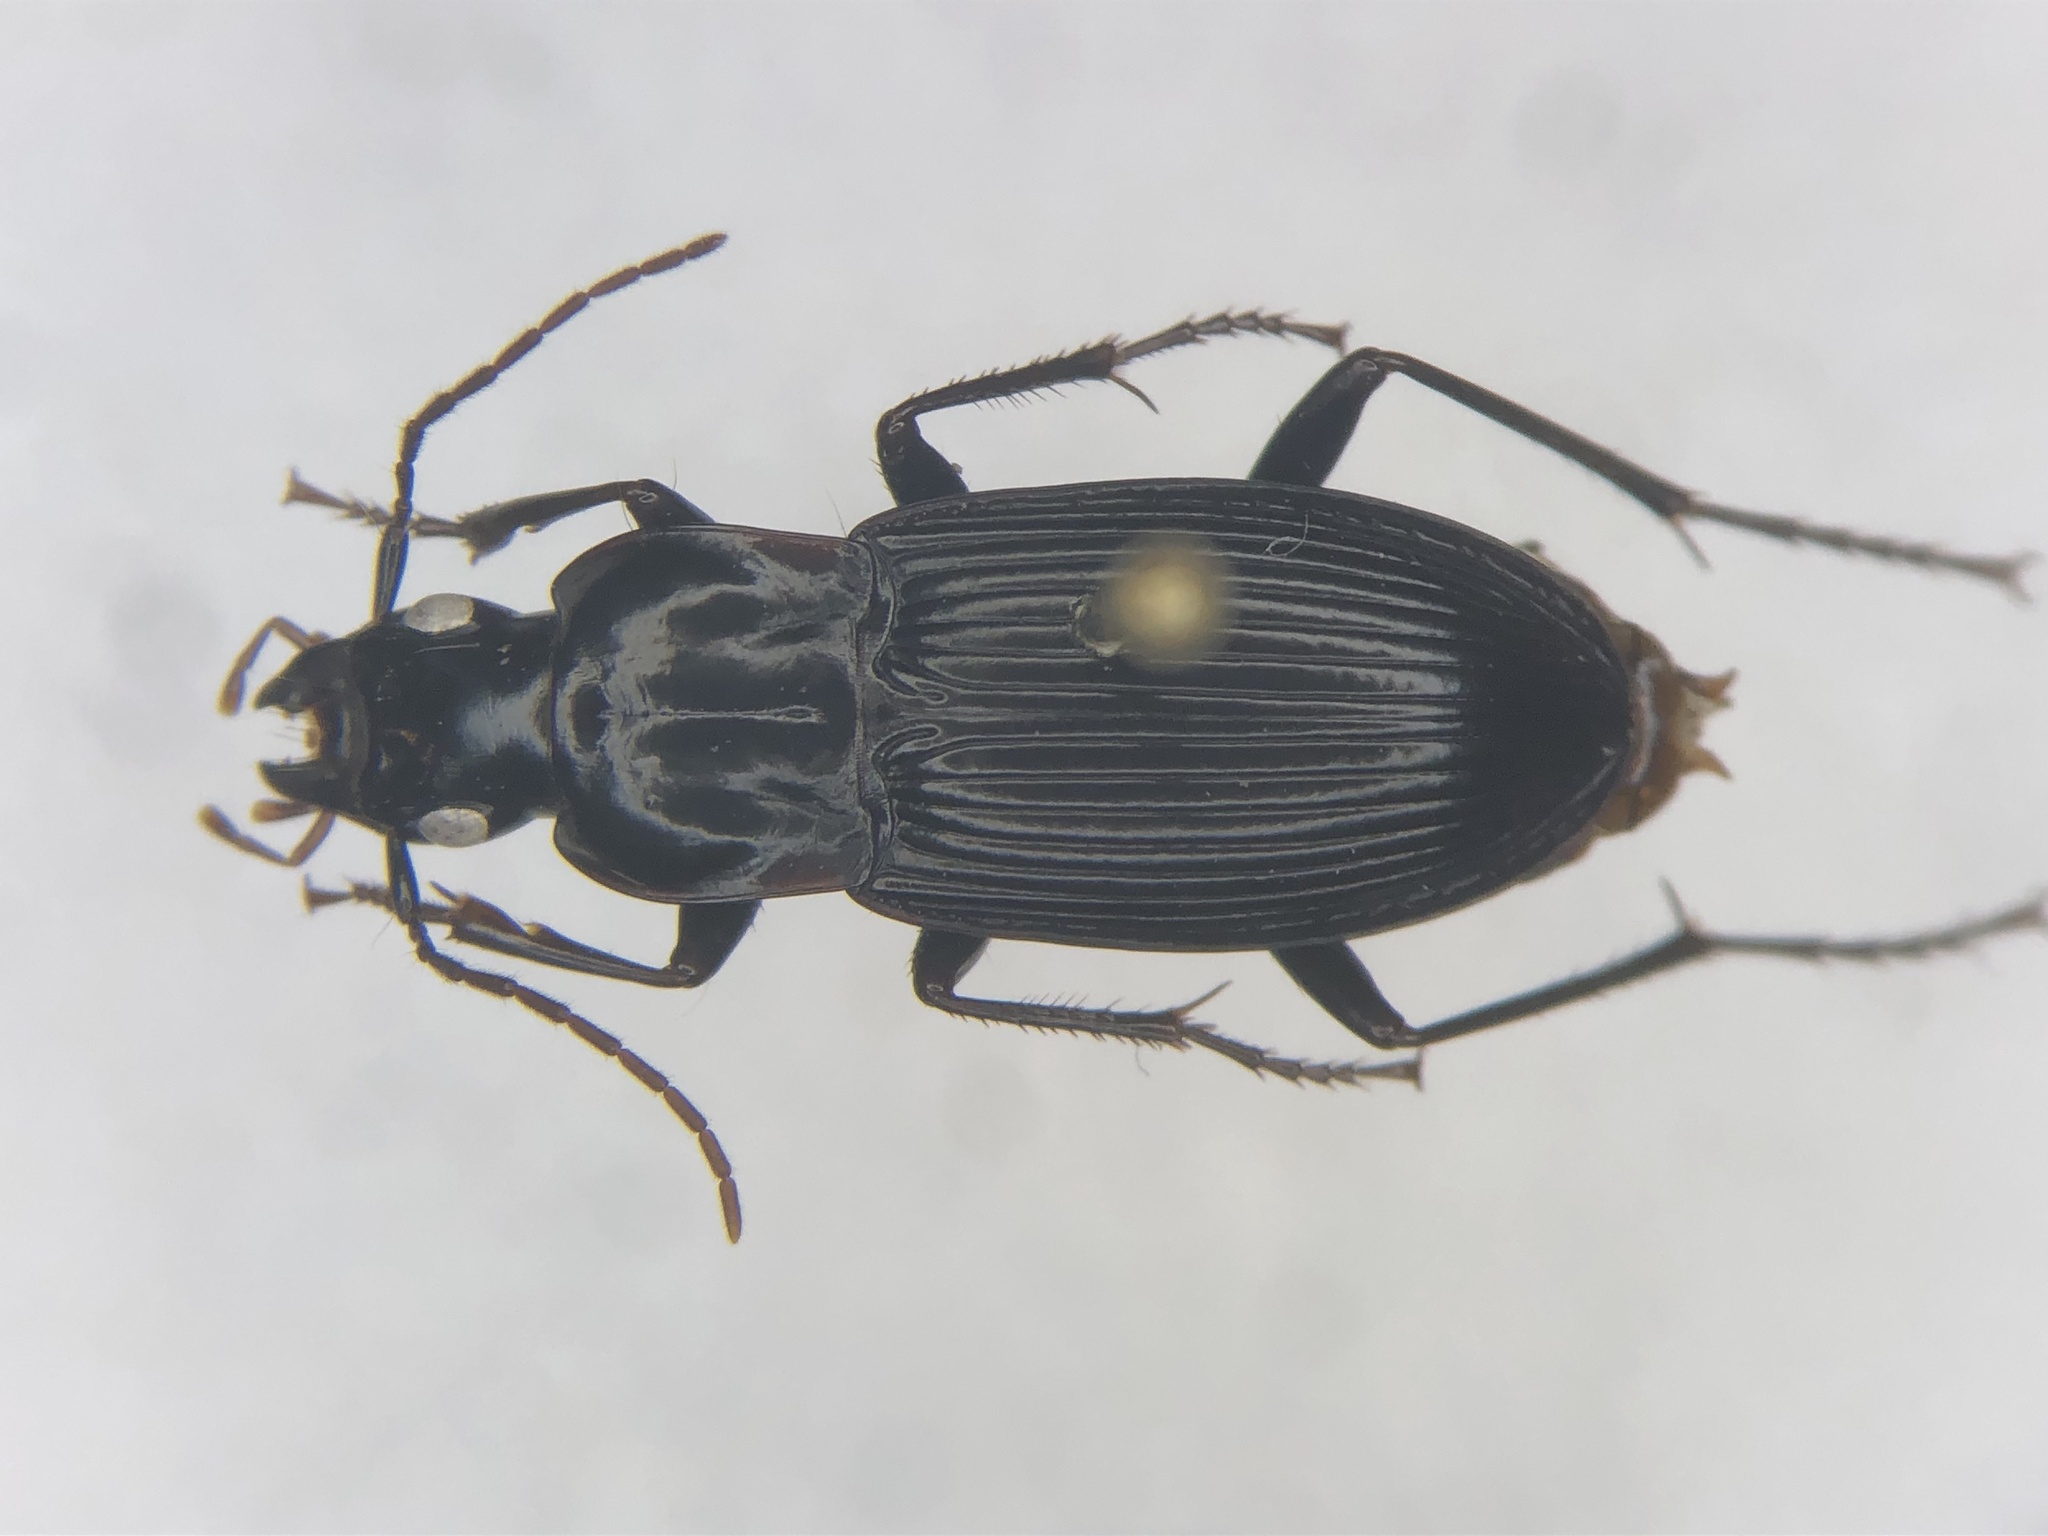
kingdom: Animalia
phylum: Arthropoda
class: Insecta
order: Coleoptera
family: Carabidae
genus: Dicaelus
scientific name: Dicaelus politus
